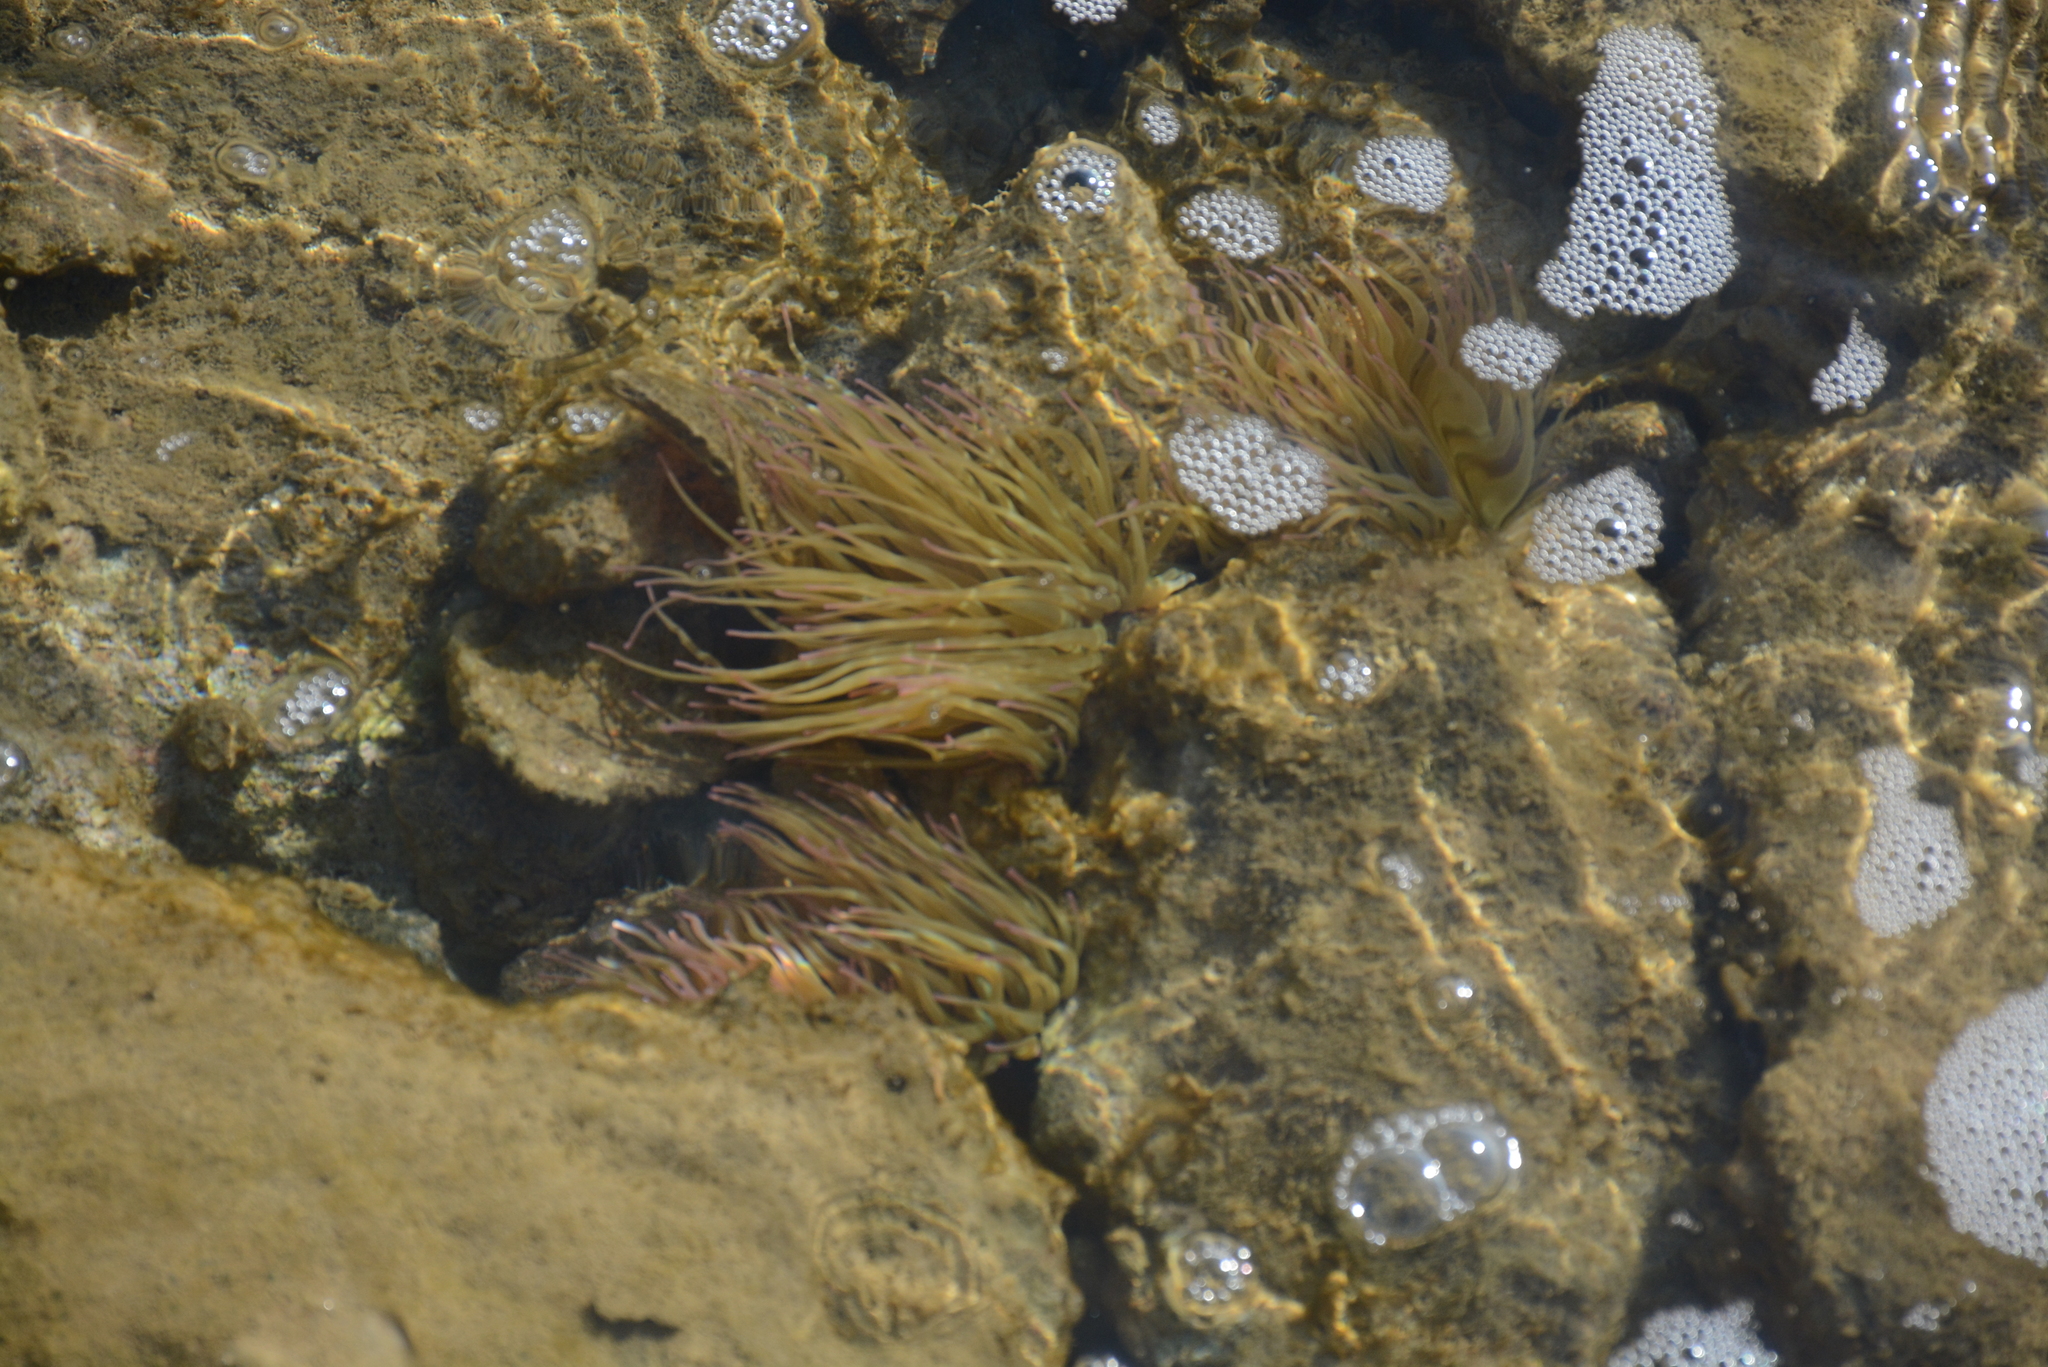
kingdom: Animalia
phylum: Cnidaria
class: Anthozoa
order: Actiniaria
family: Actiniidae
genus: Anemonia
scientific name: Anemonia viridis
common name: Snakelocks anemone
